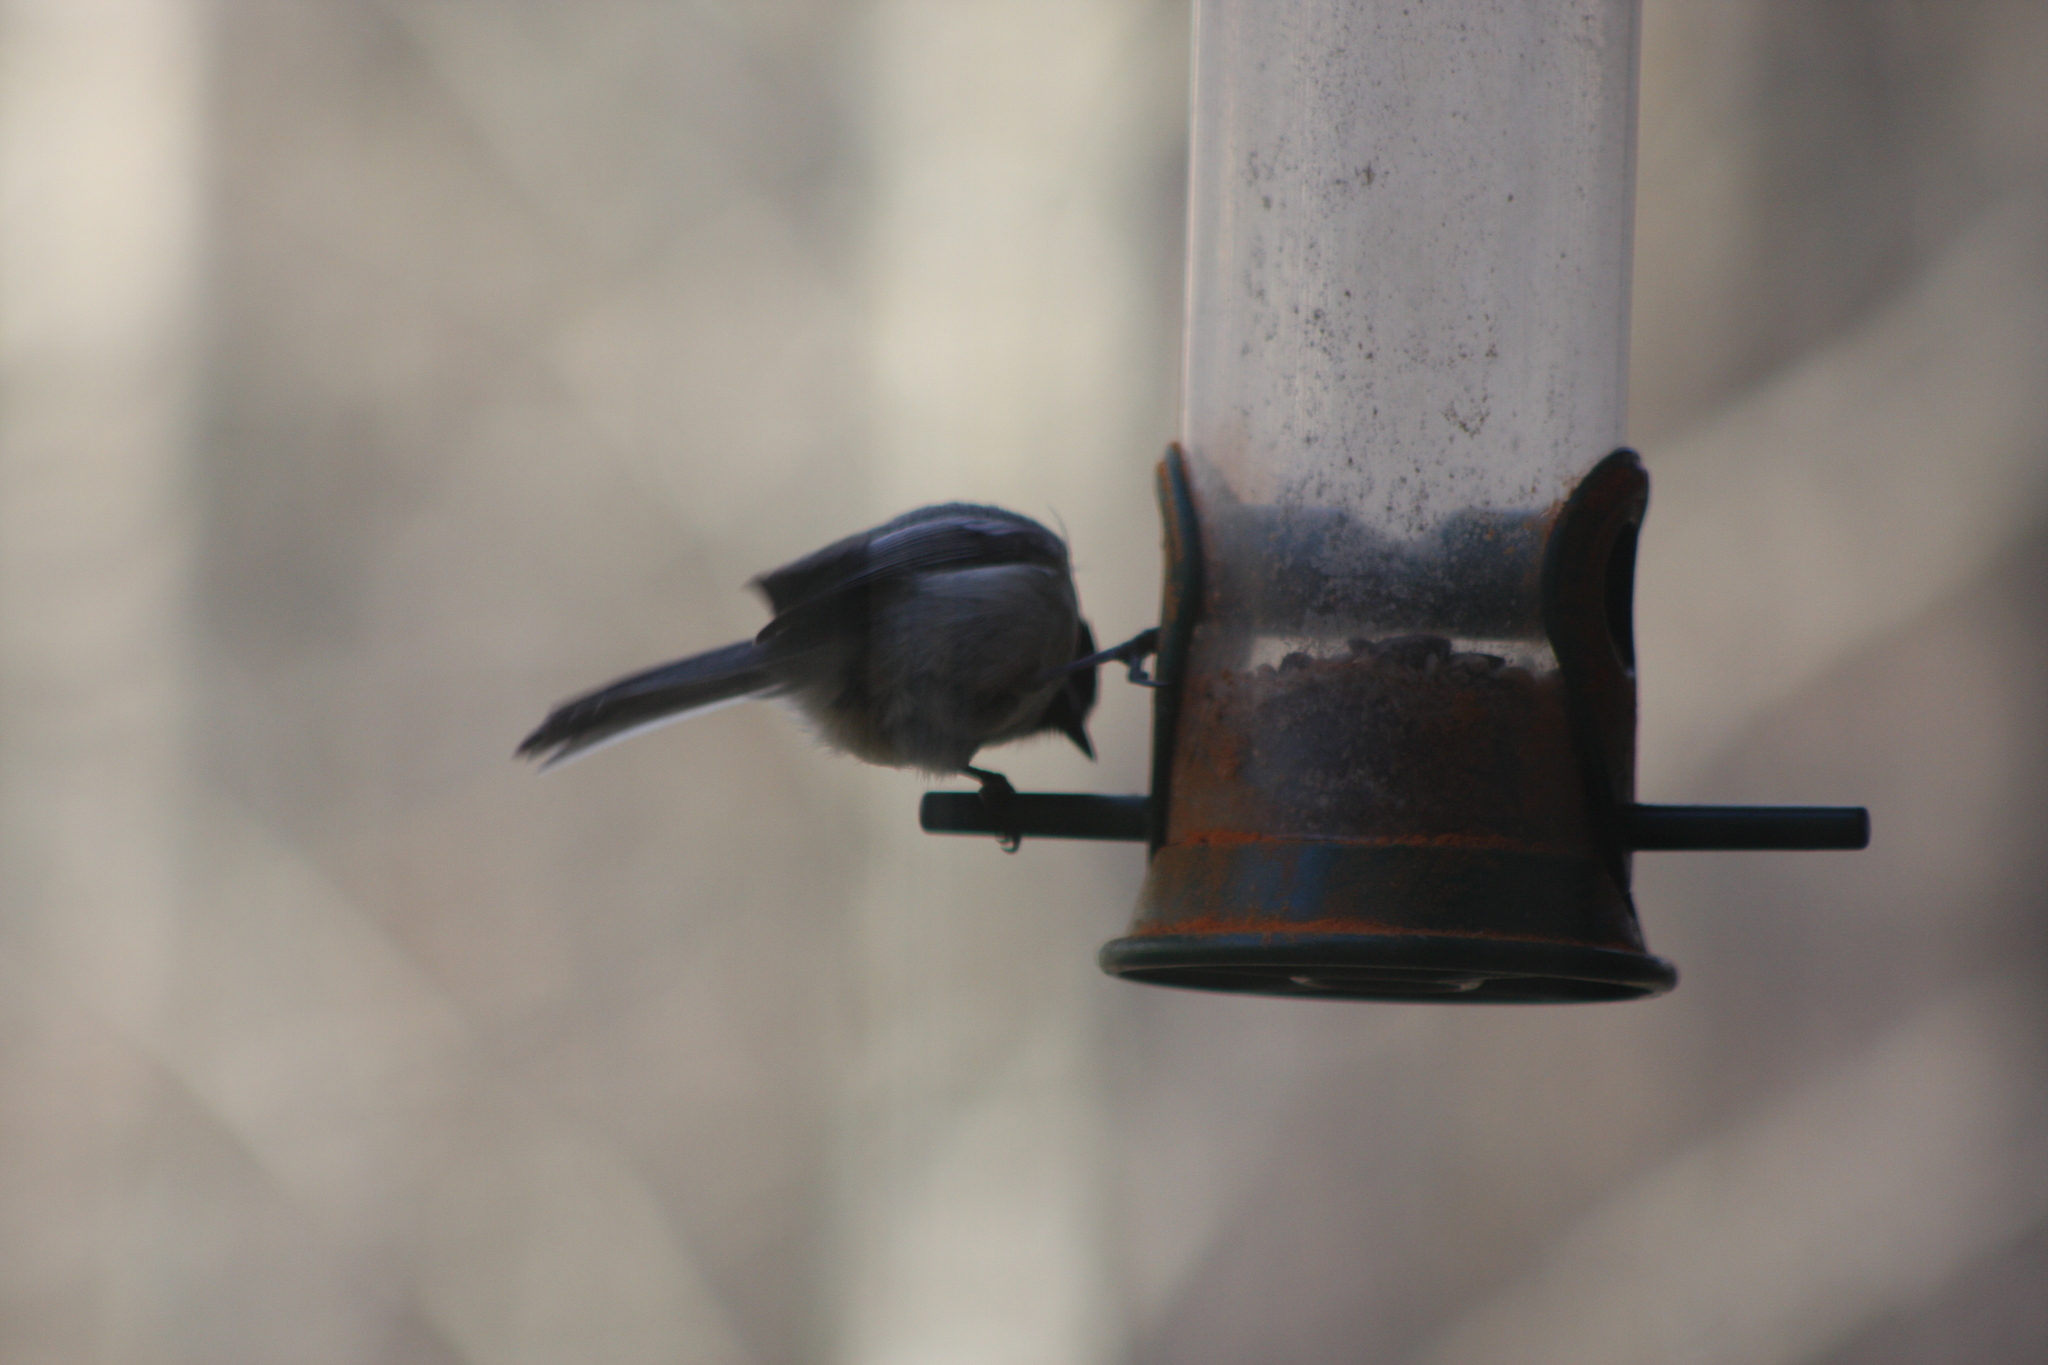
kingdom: Animalia
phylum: Chordata
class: Aves
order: Passeriformes
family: Paridae
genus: Poecile
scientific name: Poecile atricapillus
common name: Black-capped chickadee
